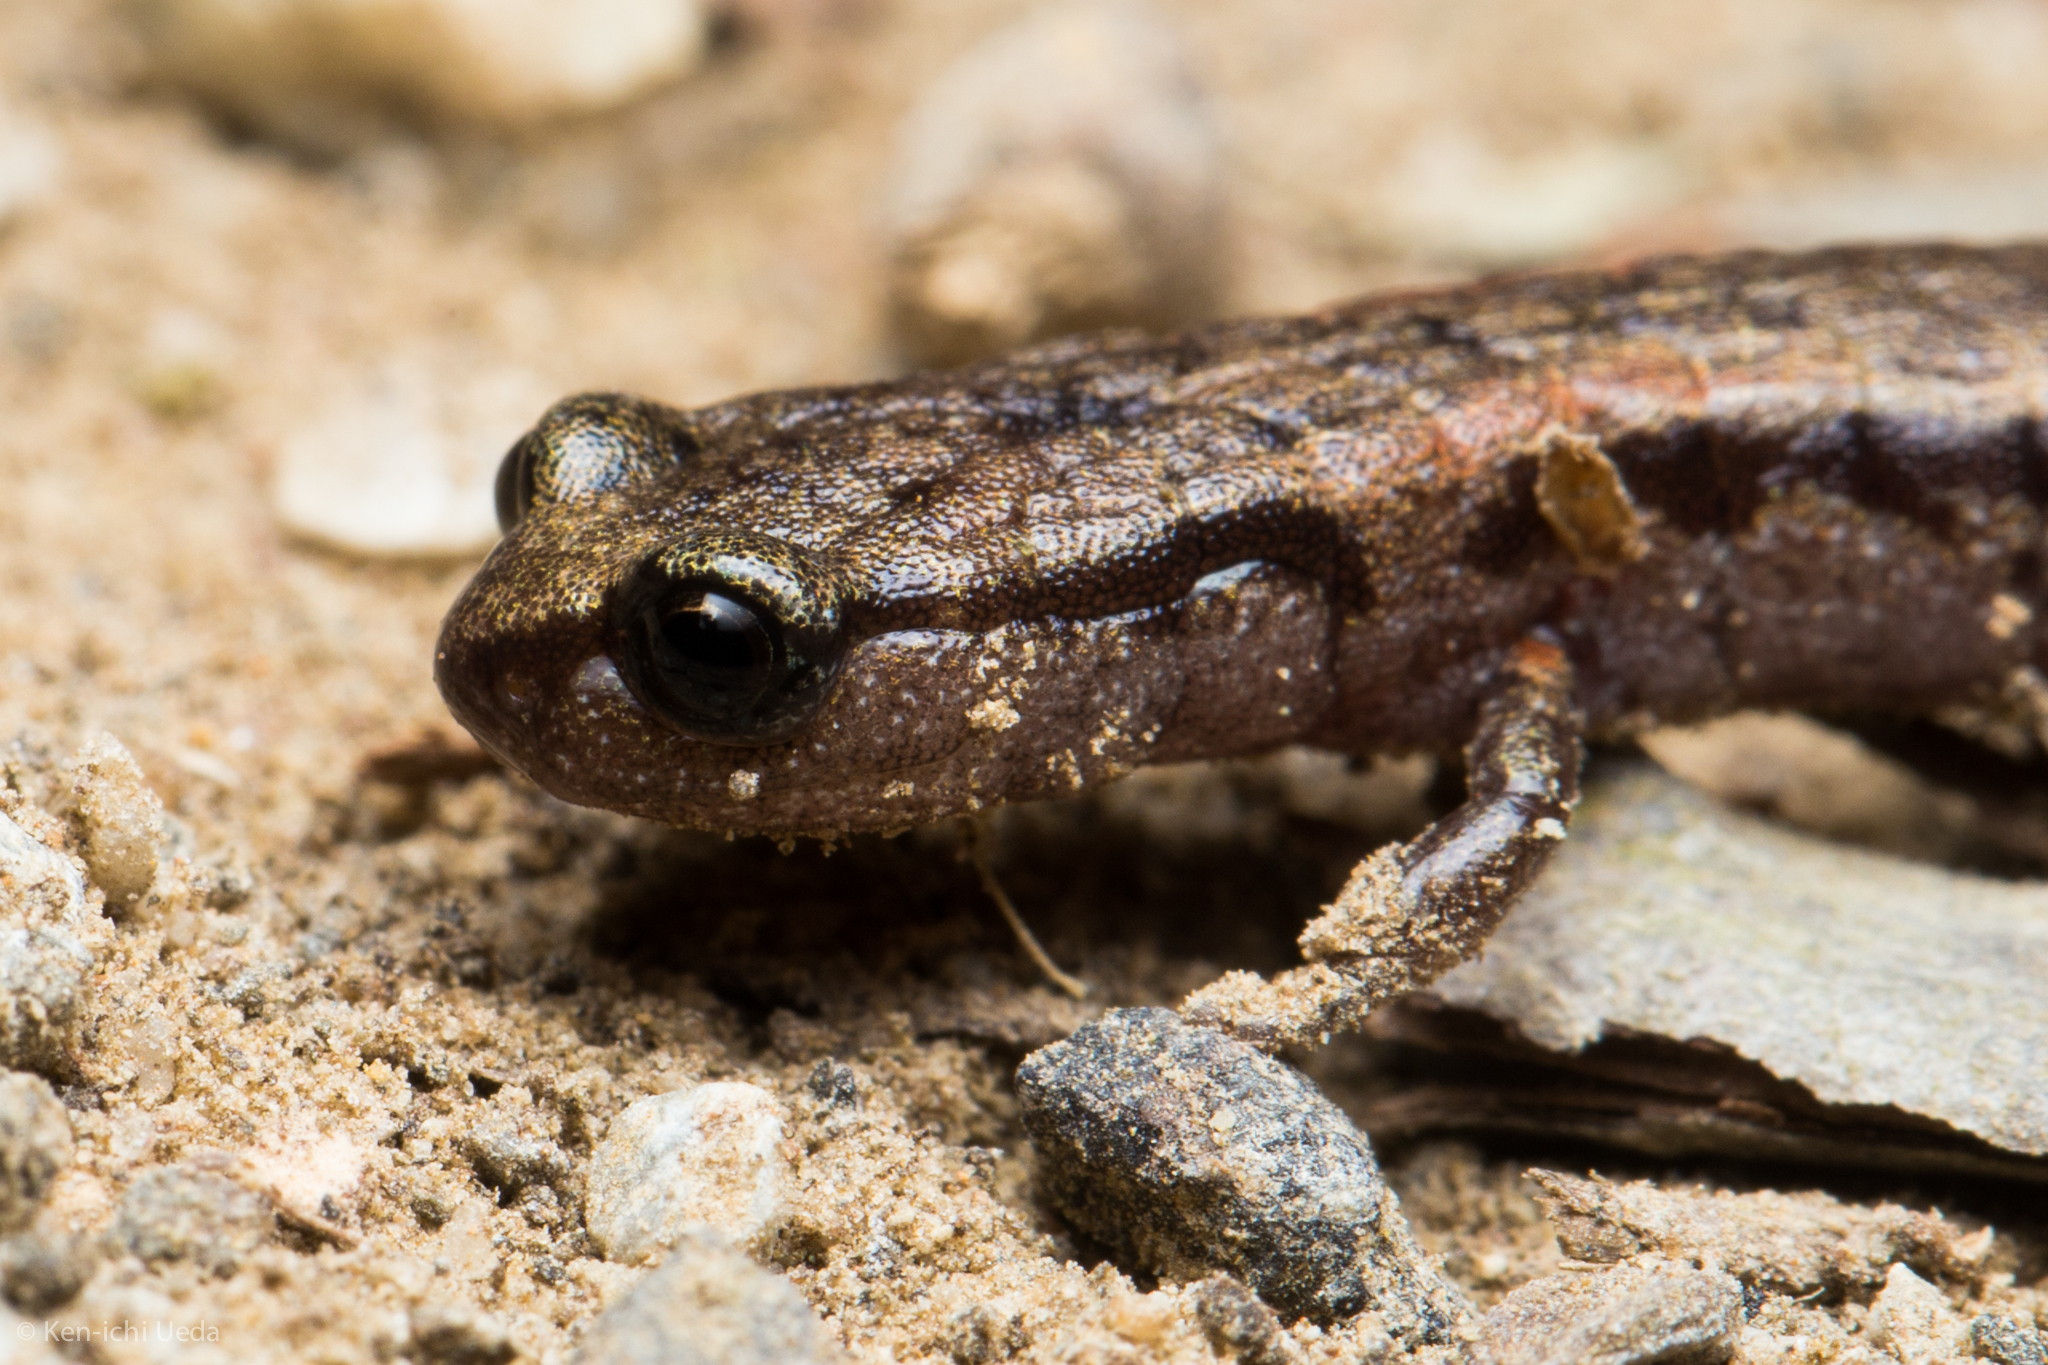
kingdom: Animalia
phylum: Chordata
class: Amphibia
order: Caudata
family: Plethodontidae
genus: Batrachoseps
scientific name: Batrachoseps attenuatus
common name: California slender salamander
